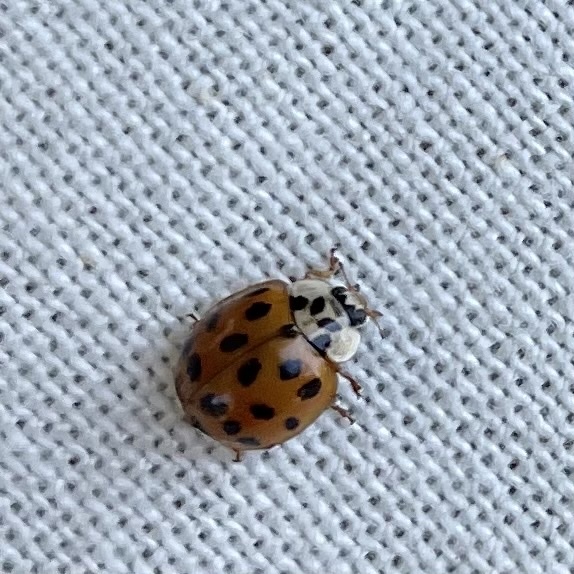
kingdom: Animalia
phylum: Arthropoda
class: Insecta
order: Coleoptera
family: Coccinellidae
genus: Harmonia
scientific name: Harmonia axyridis
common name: Harlequin ladybird
